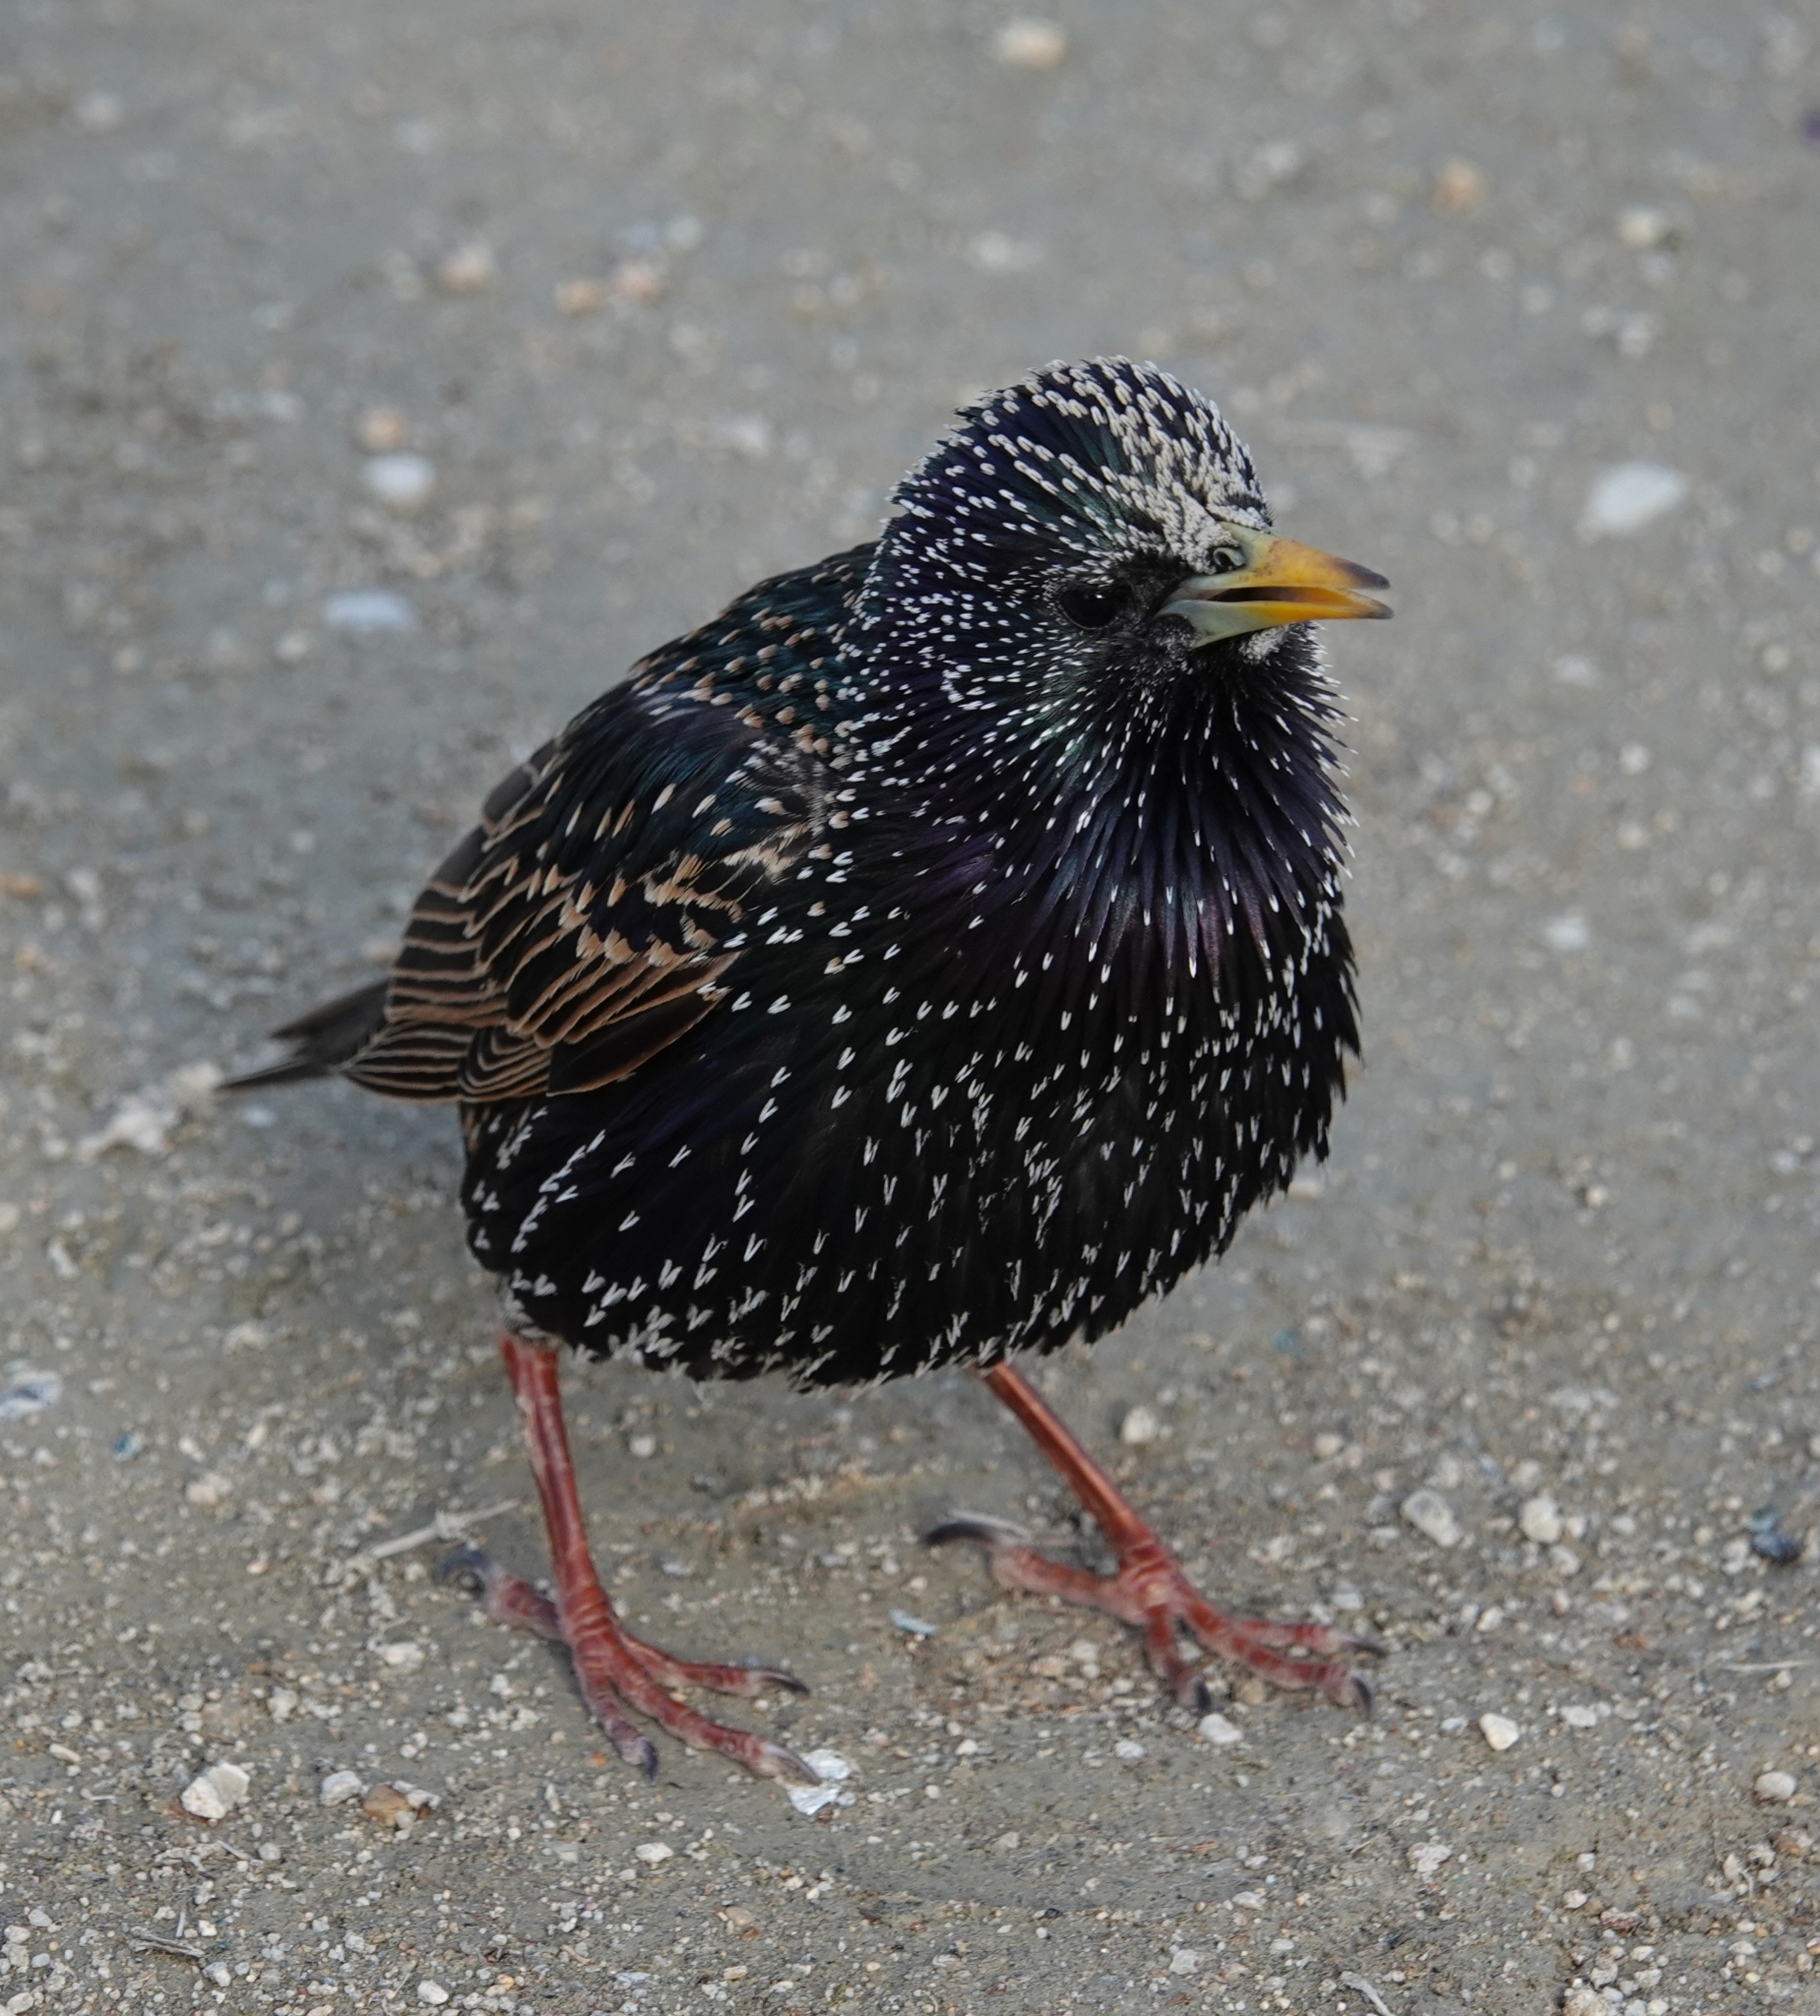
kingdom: Animalia
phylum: Chordata
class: Aves
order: Passeriformes
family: Sturnidae
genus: Sturnus
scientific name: Sturnus vulgaris
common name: Common starling
